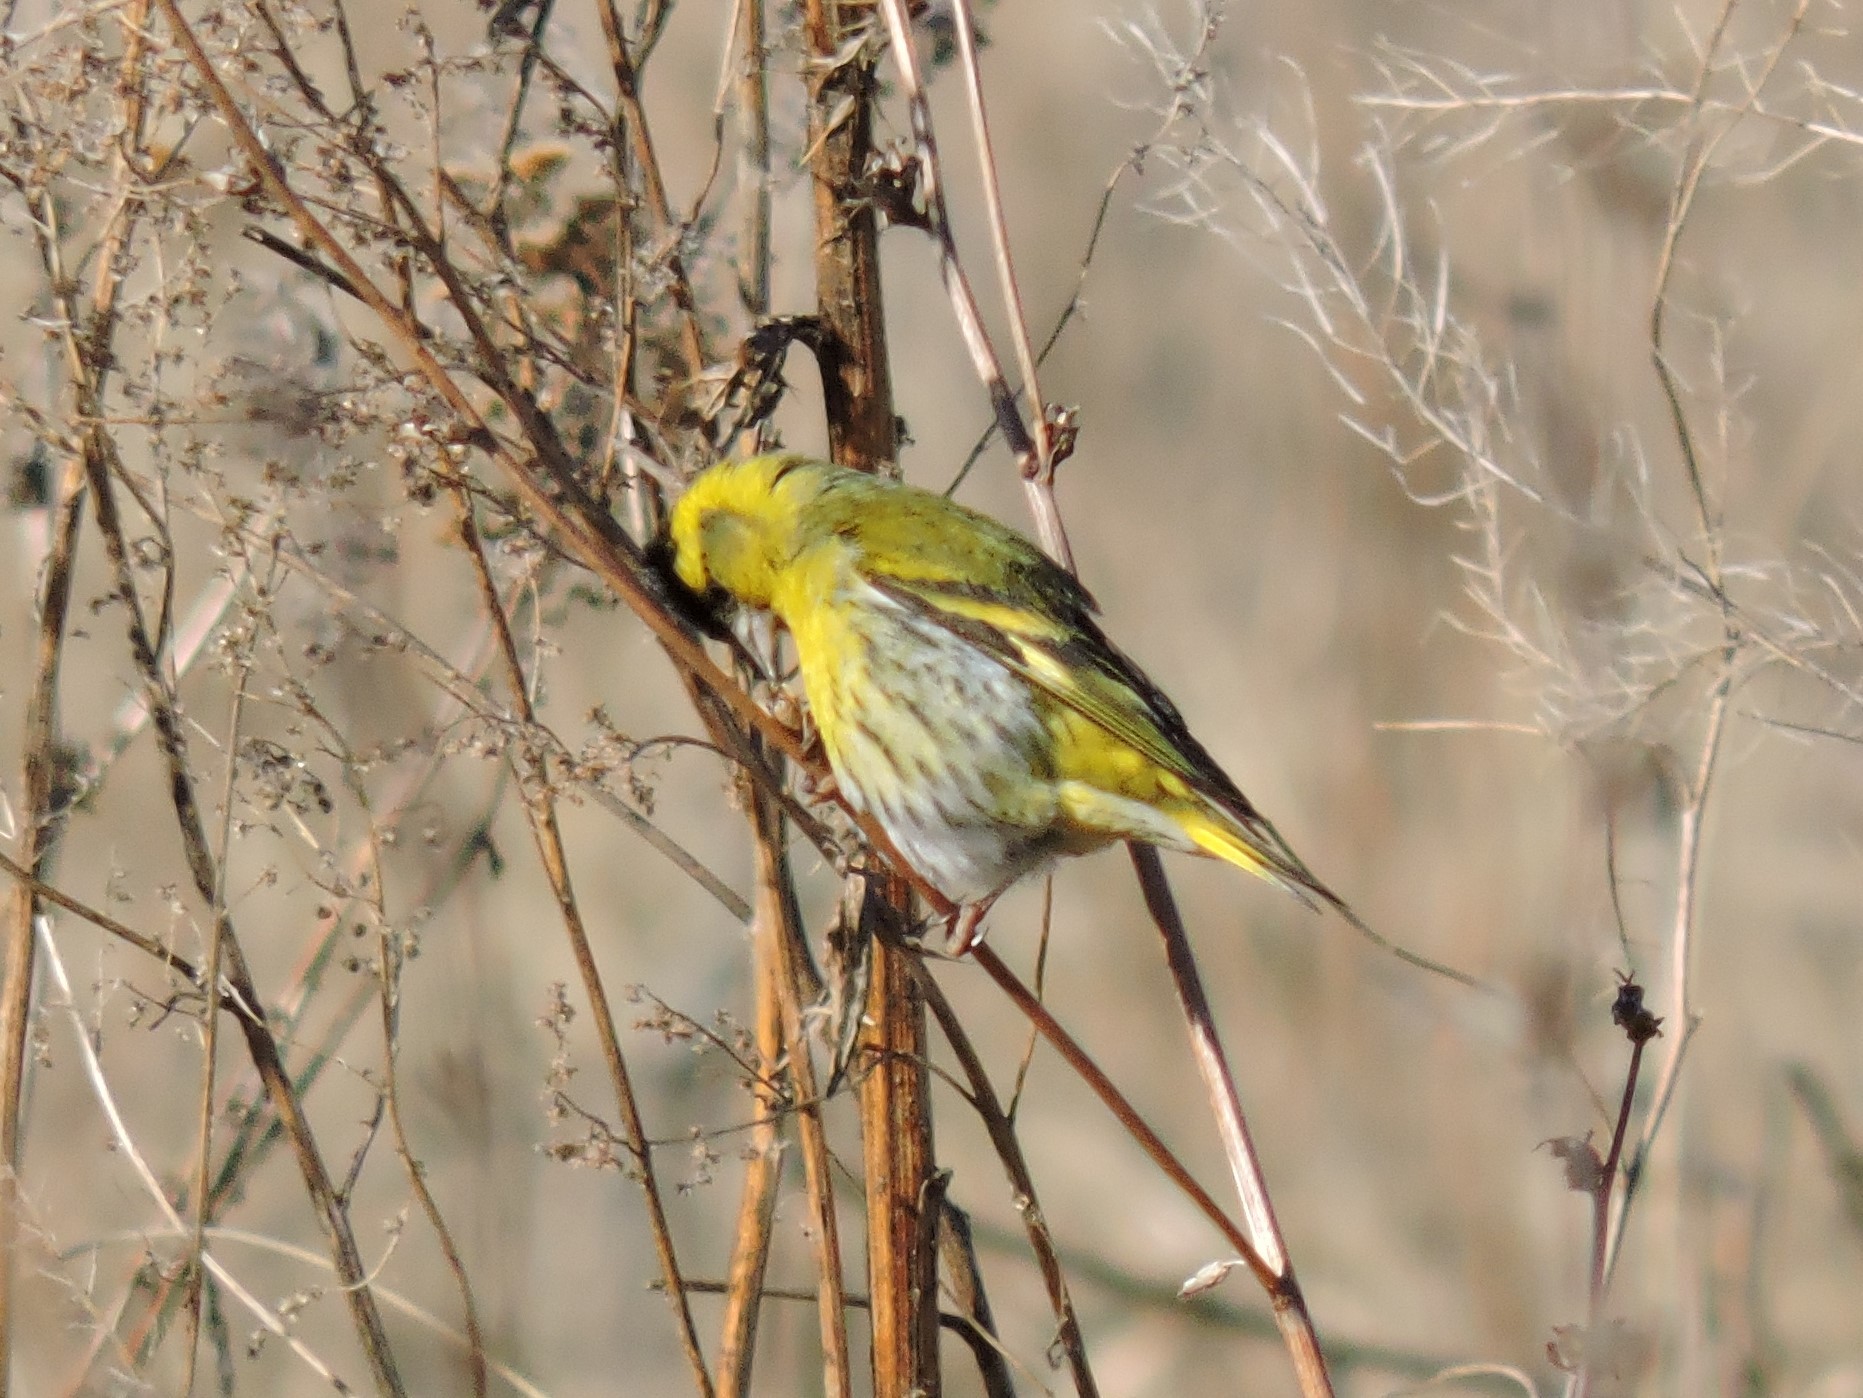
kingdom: Animalia
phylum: Chordata
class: Aves
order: Passeriformes
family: Fringillidae
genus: Spinus
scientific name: Spinus spinus
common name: Eurasian siskin
